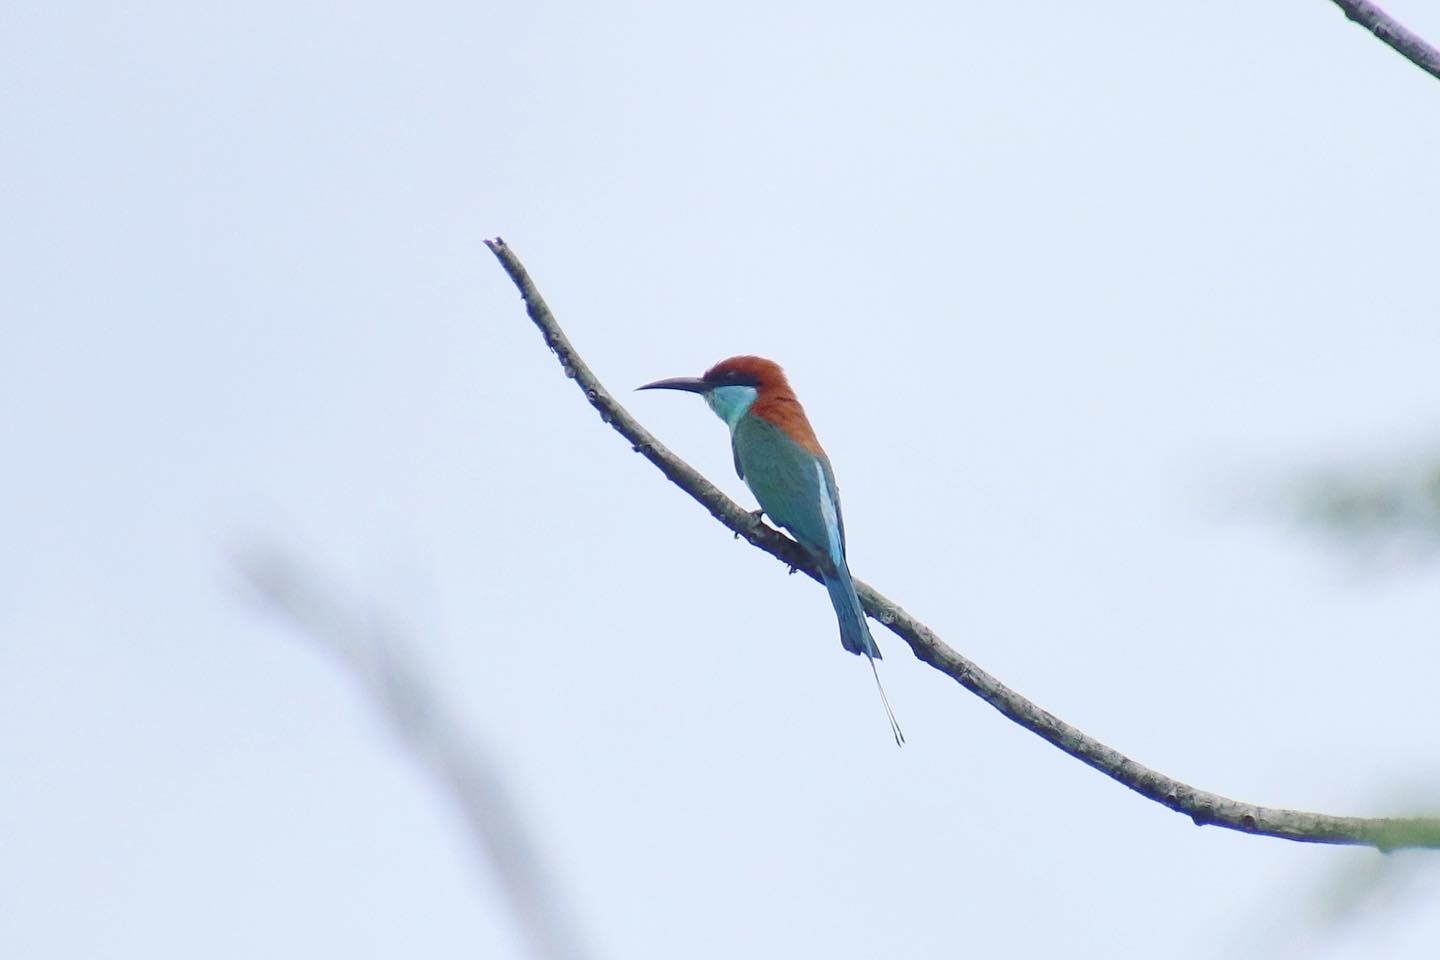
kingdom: Animalia
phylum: Chordata
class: Aves
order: Coraciiformes
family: Meropidae
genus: Merops
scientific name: Merops americanus
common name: Rufous-crowned bee-eater
